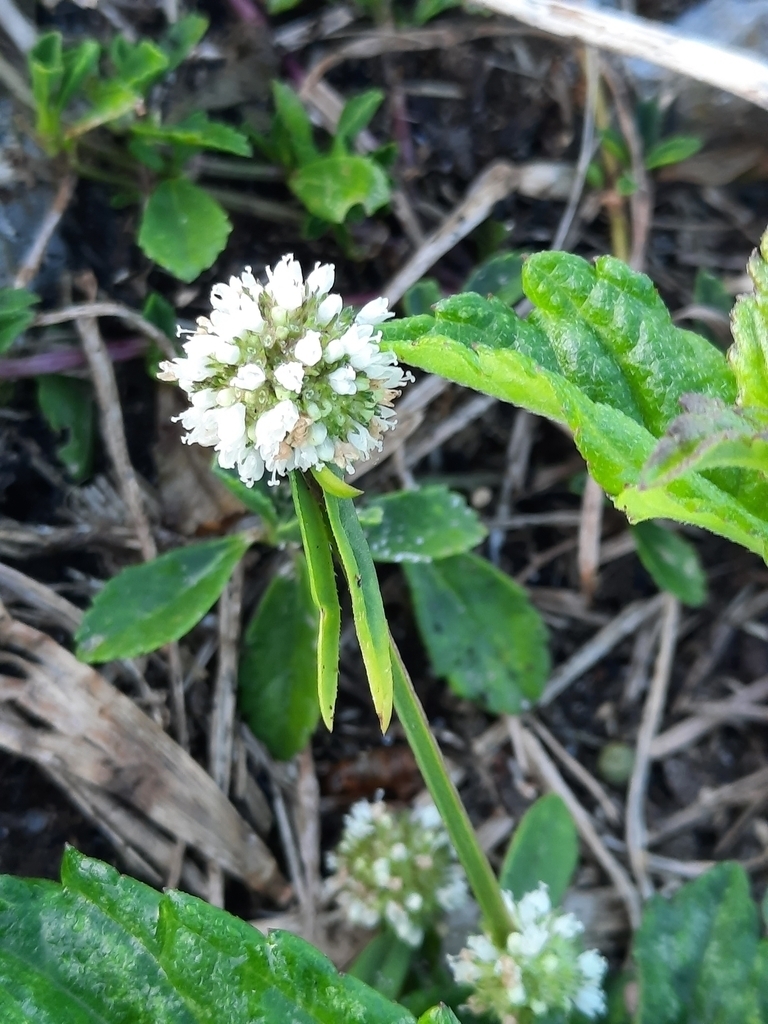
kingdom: Plantae
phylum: Tracheophyta
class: Magnoliopsida
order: Gentianales
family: Rubiaceae
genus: Spermacoce
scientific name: Spermacoce verticillata
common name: Shrubby false buttonweed
